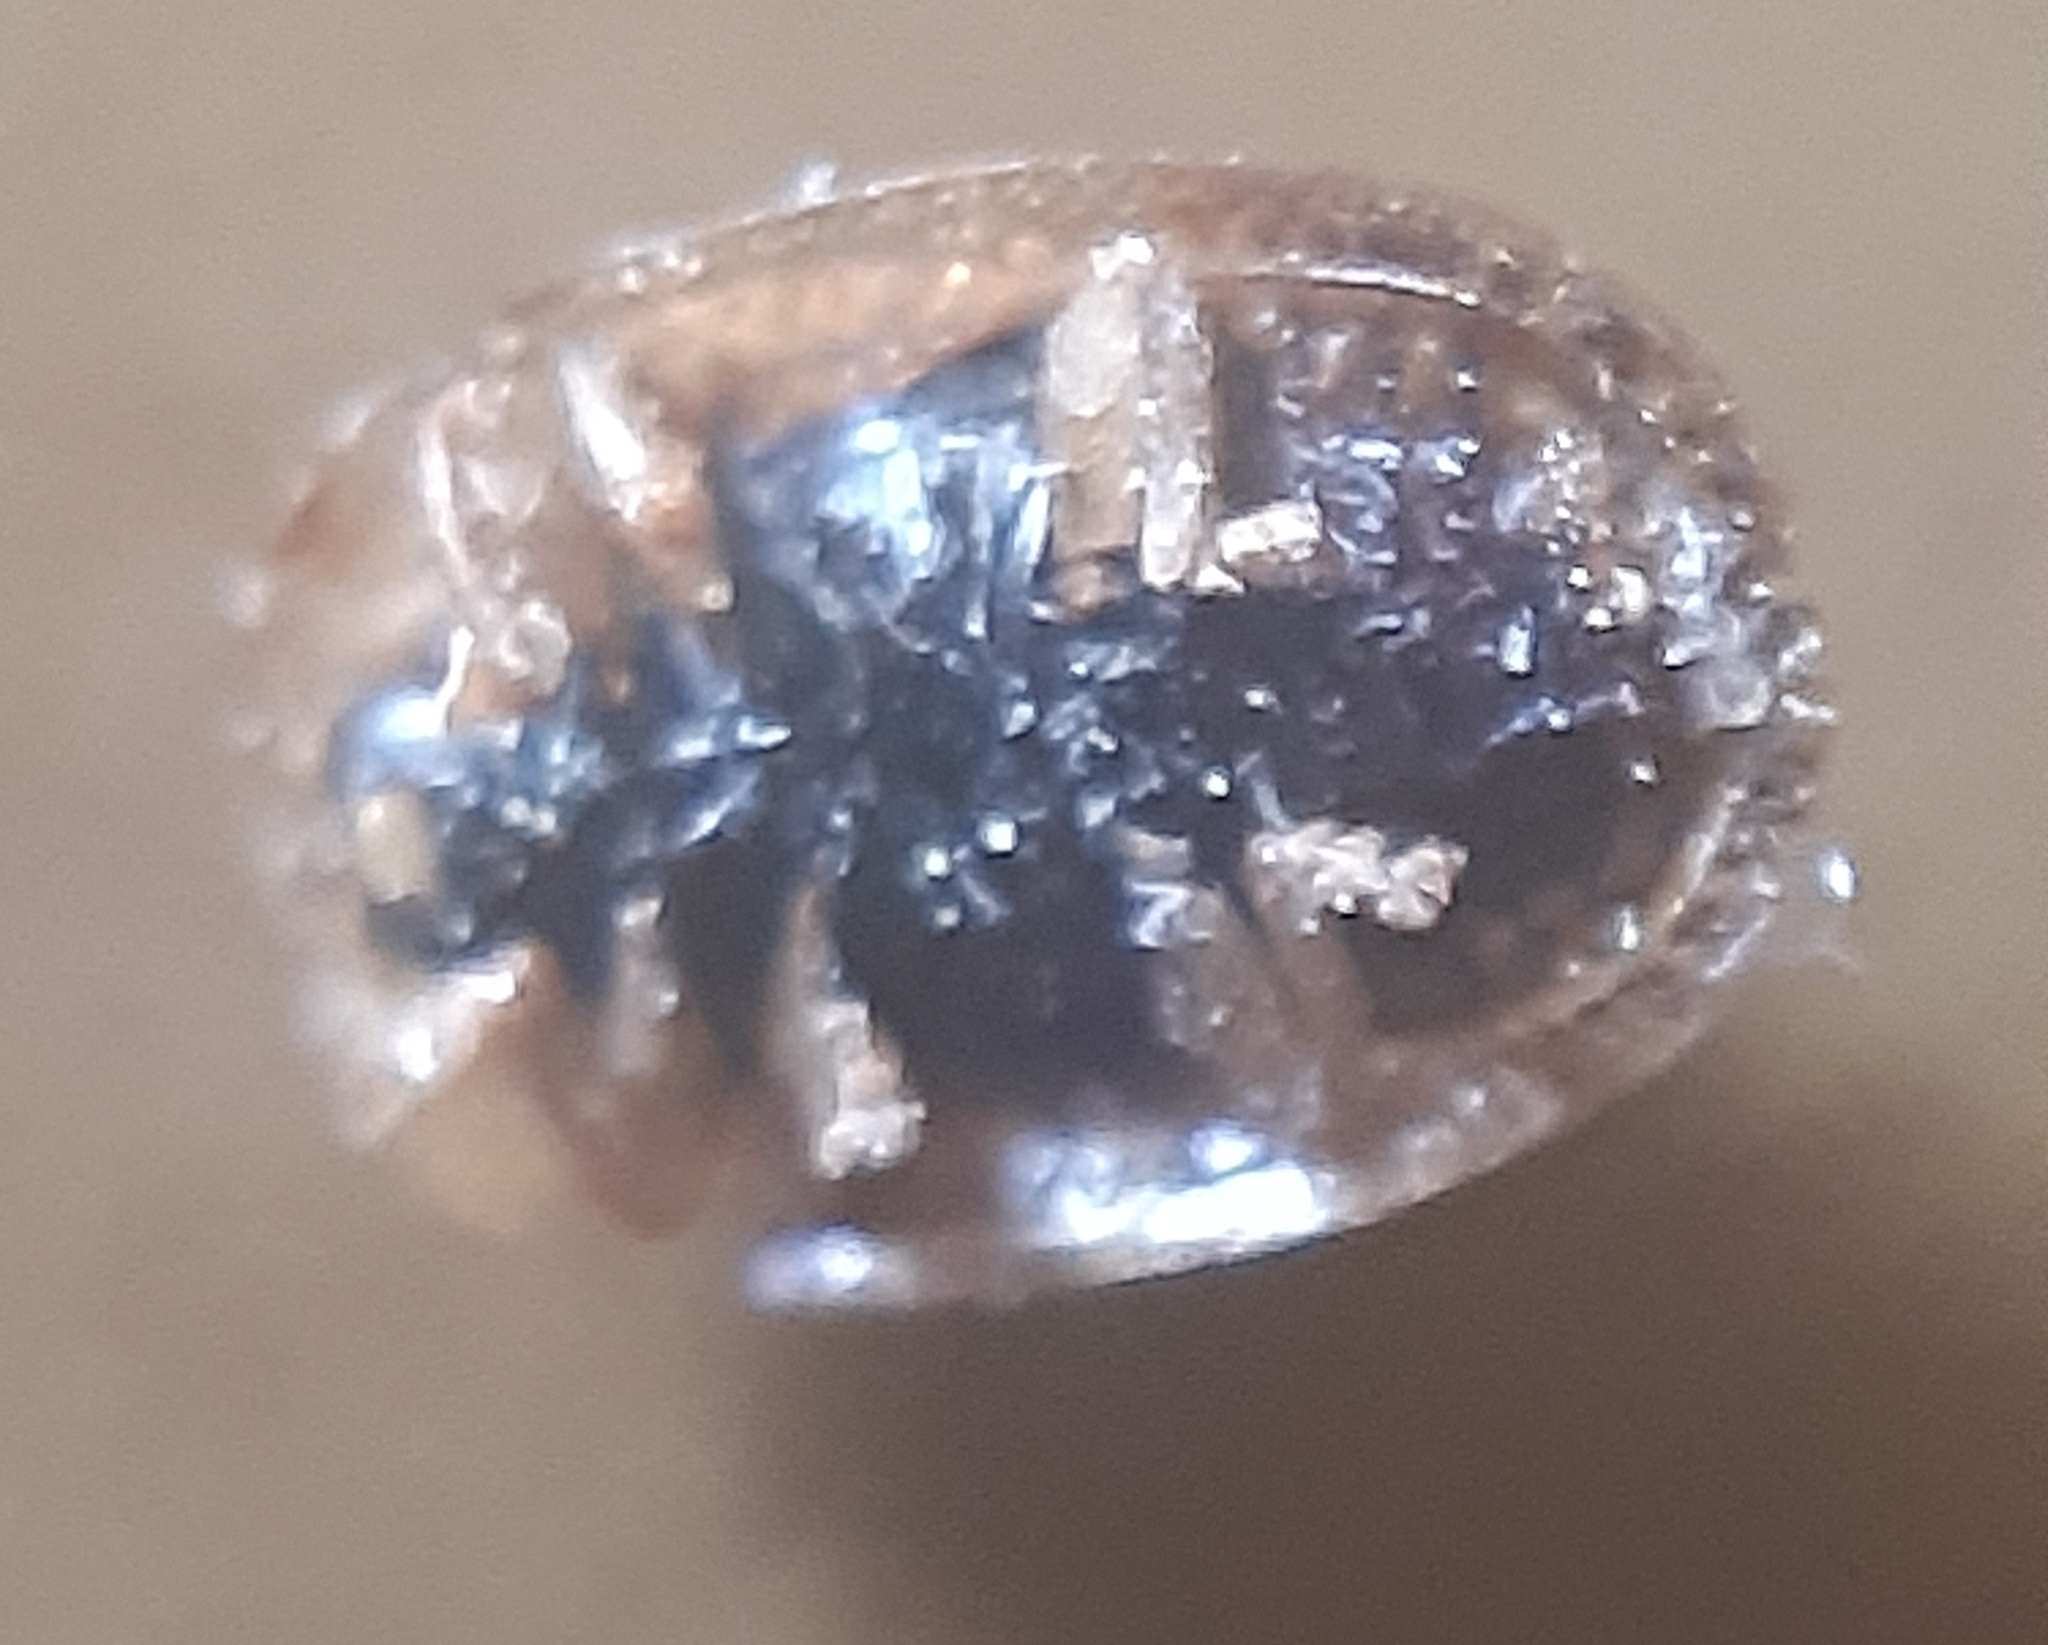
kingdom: Animalia
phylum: Arthropoda
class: Insecta
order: Coleoptera
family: Chrysomelidae
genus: Hypocassida
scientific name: Hypocassida subferruginea
